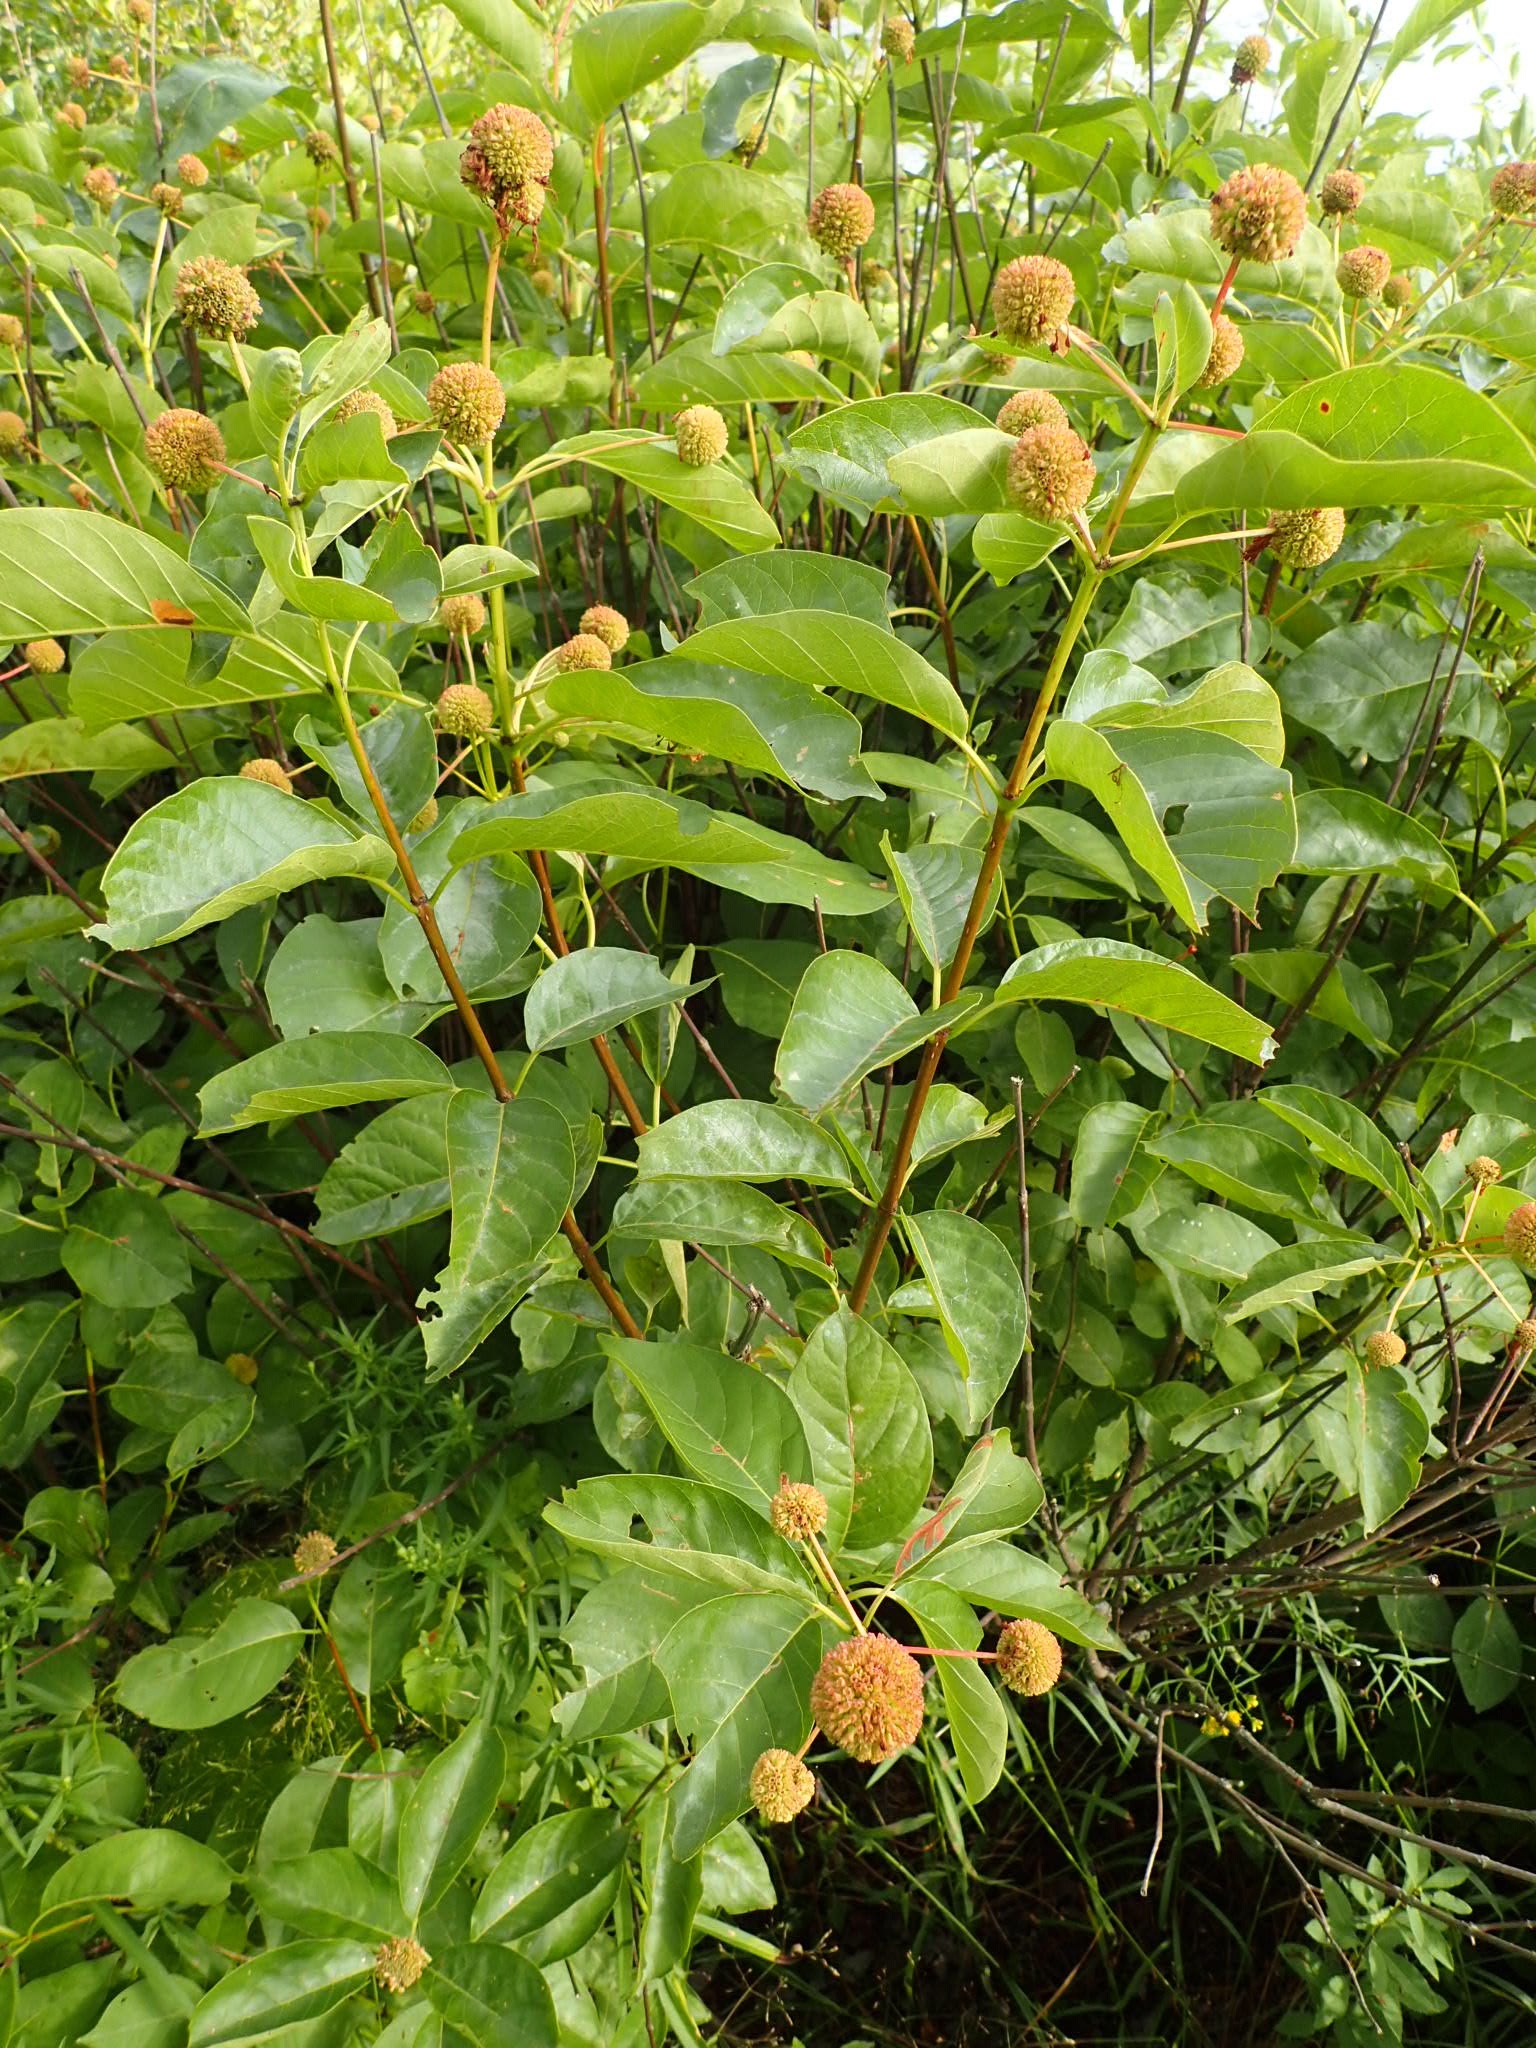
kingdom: Plantae
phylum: Tracheophyta
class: Magnoliopsida
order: Gentianales
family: Rubiaceae
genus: Cephalanthus
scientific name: Cephalanthus occidentalis
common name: Button-willow
